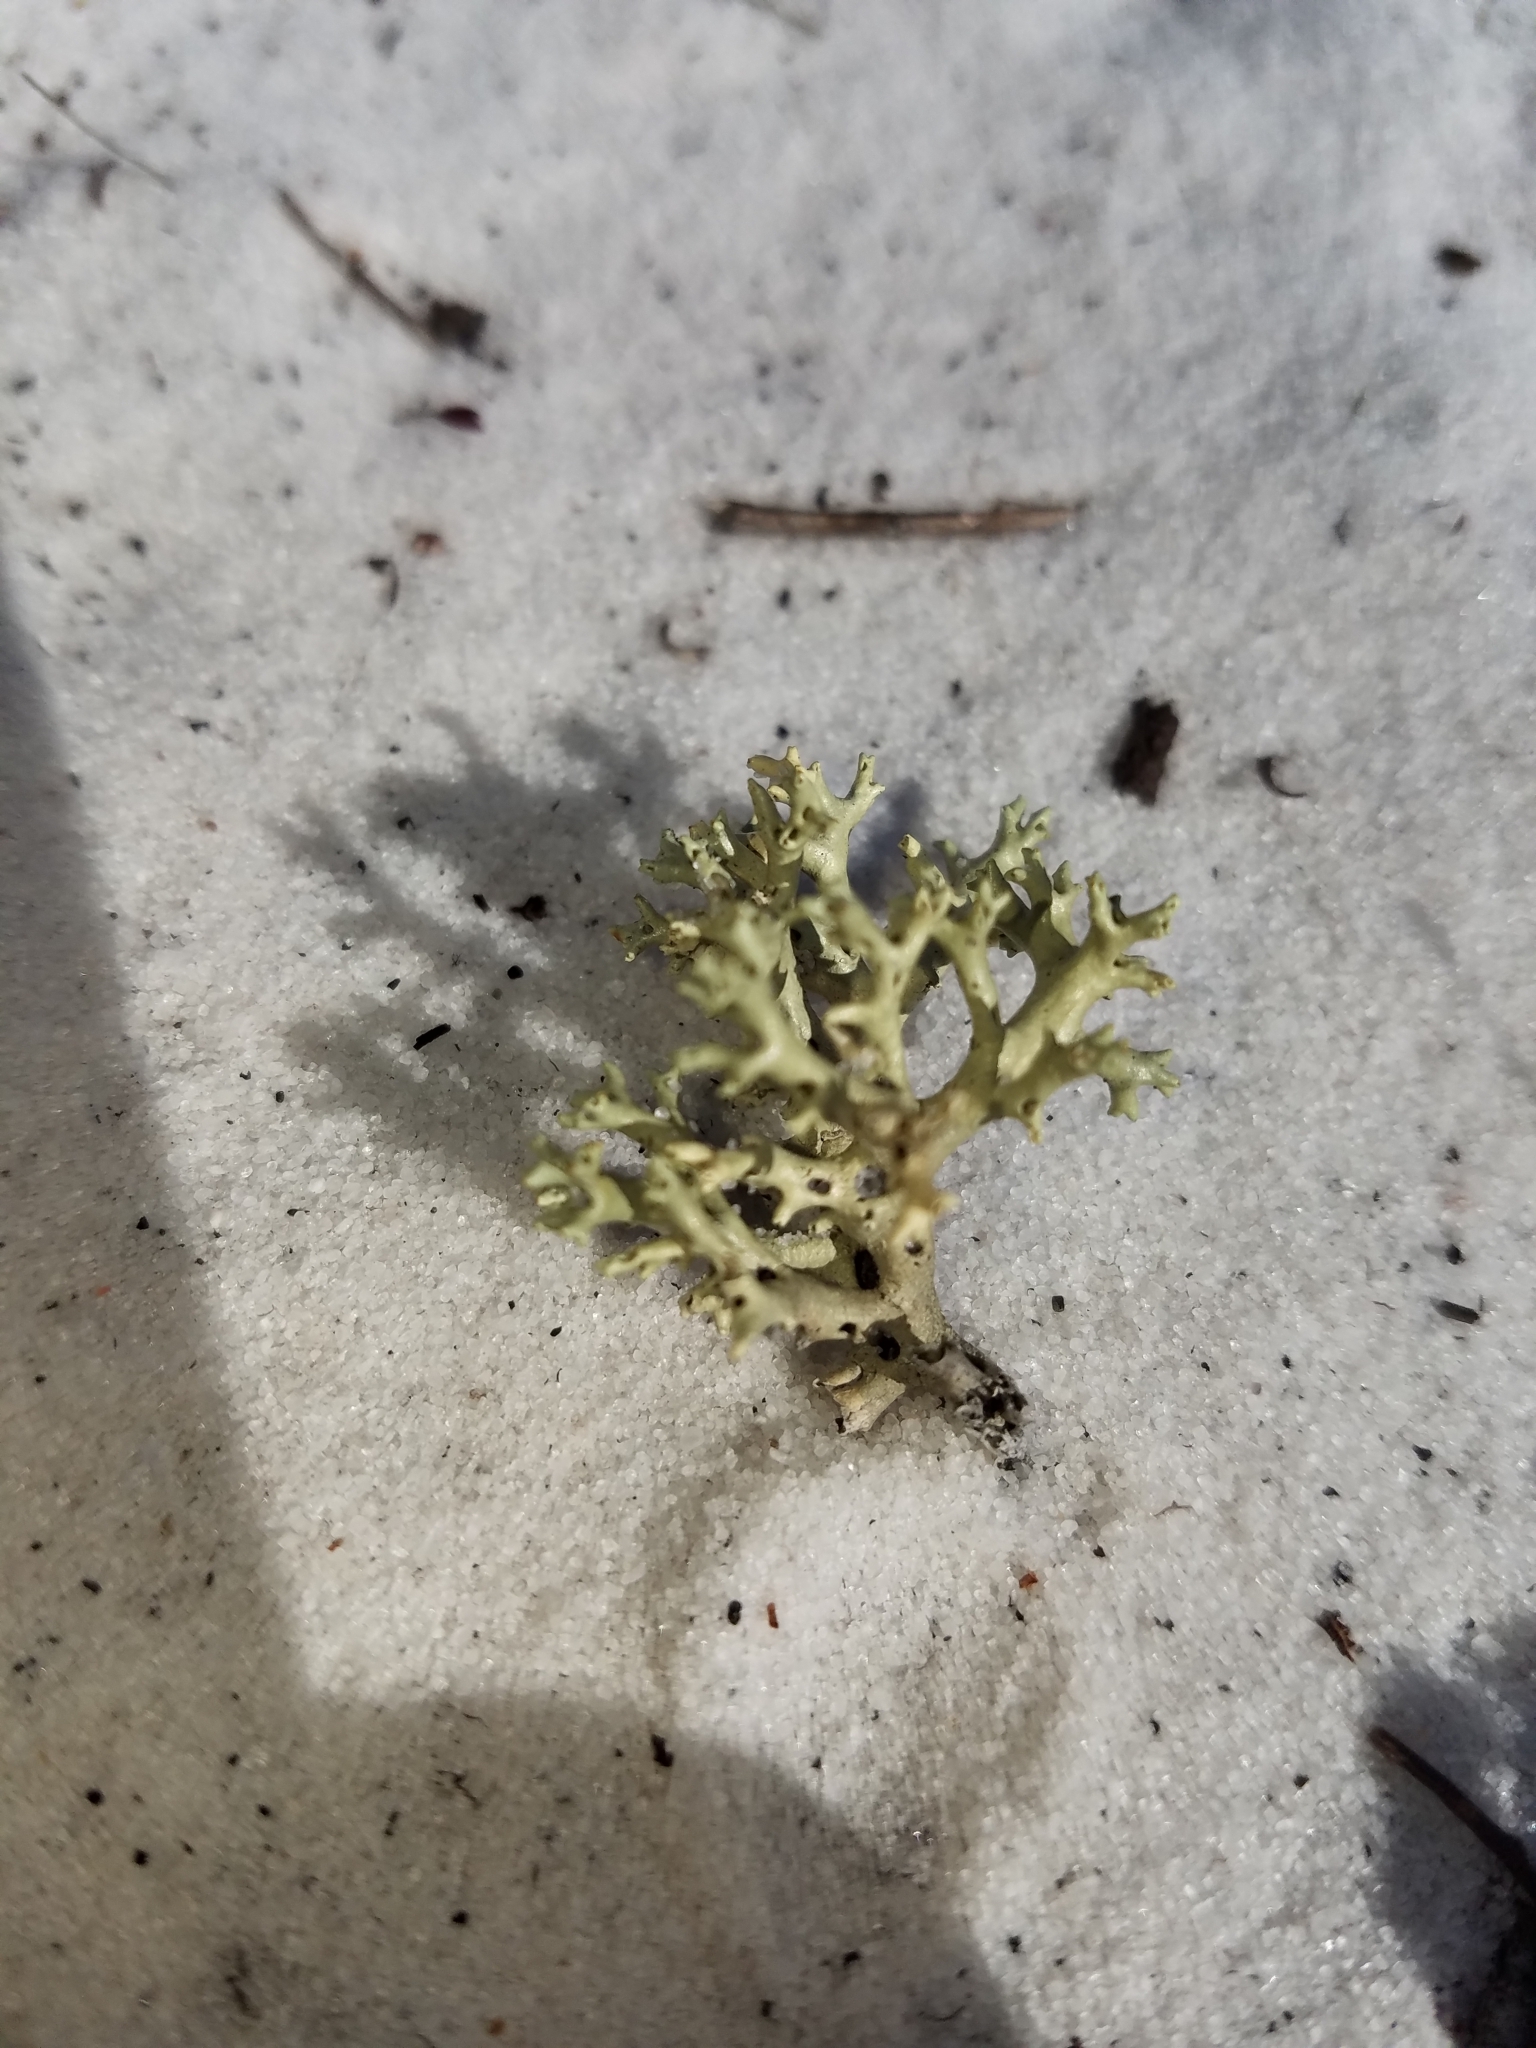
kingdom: Fungi
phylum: Ascomycota
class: Lecanoromycetes
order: Lecanorales
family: Cladoniaceae
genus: Cladonia
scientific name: Cladonia perforata
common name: Florida perforate reindeer lichen
